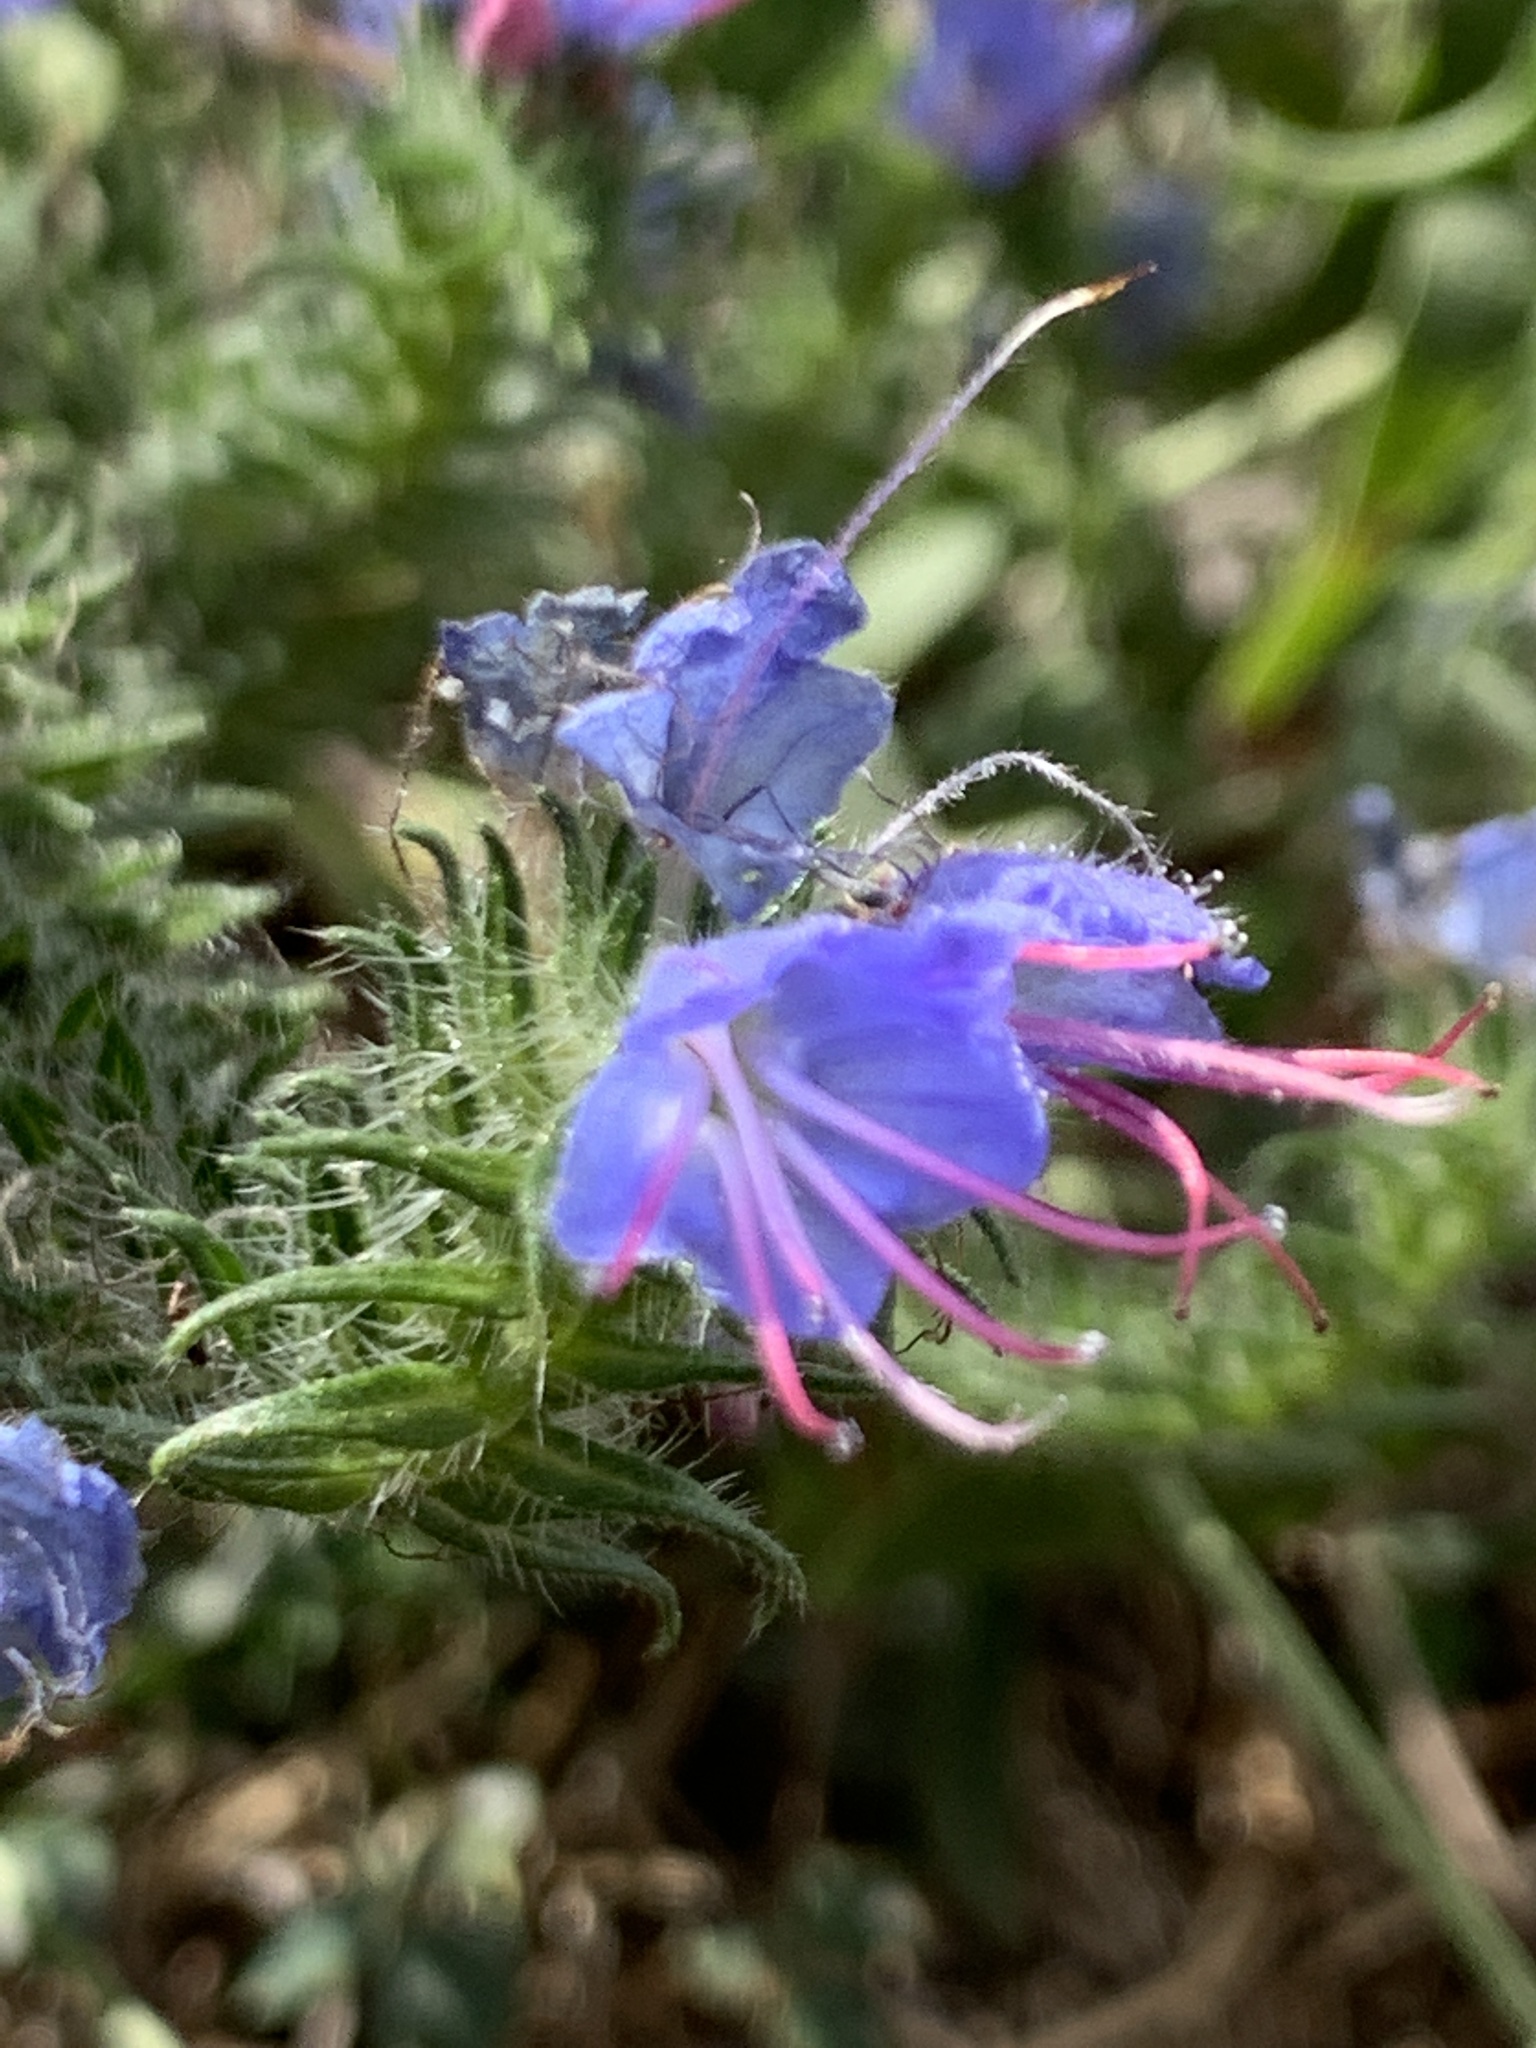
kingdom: Plantae
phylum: Tracheophyta
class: Magnoliopsida
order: Boraginales
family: Boraginaceae
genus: Echium
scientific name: Echium vulgare
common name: Common viper's bugloss
